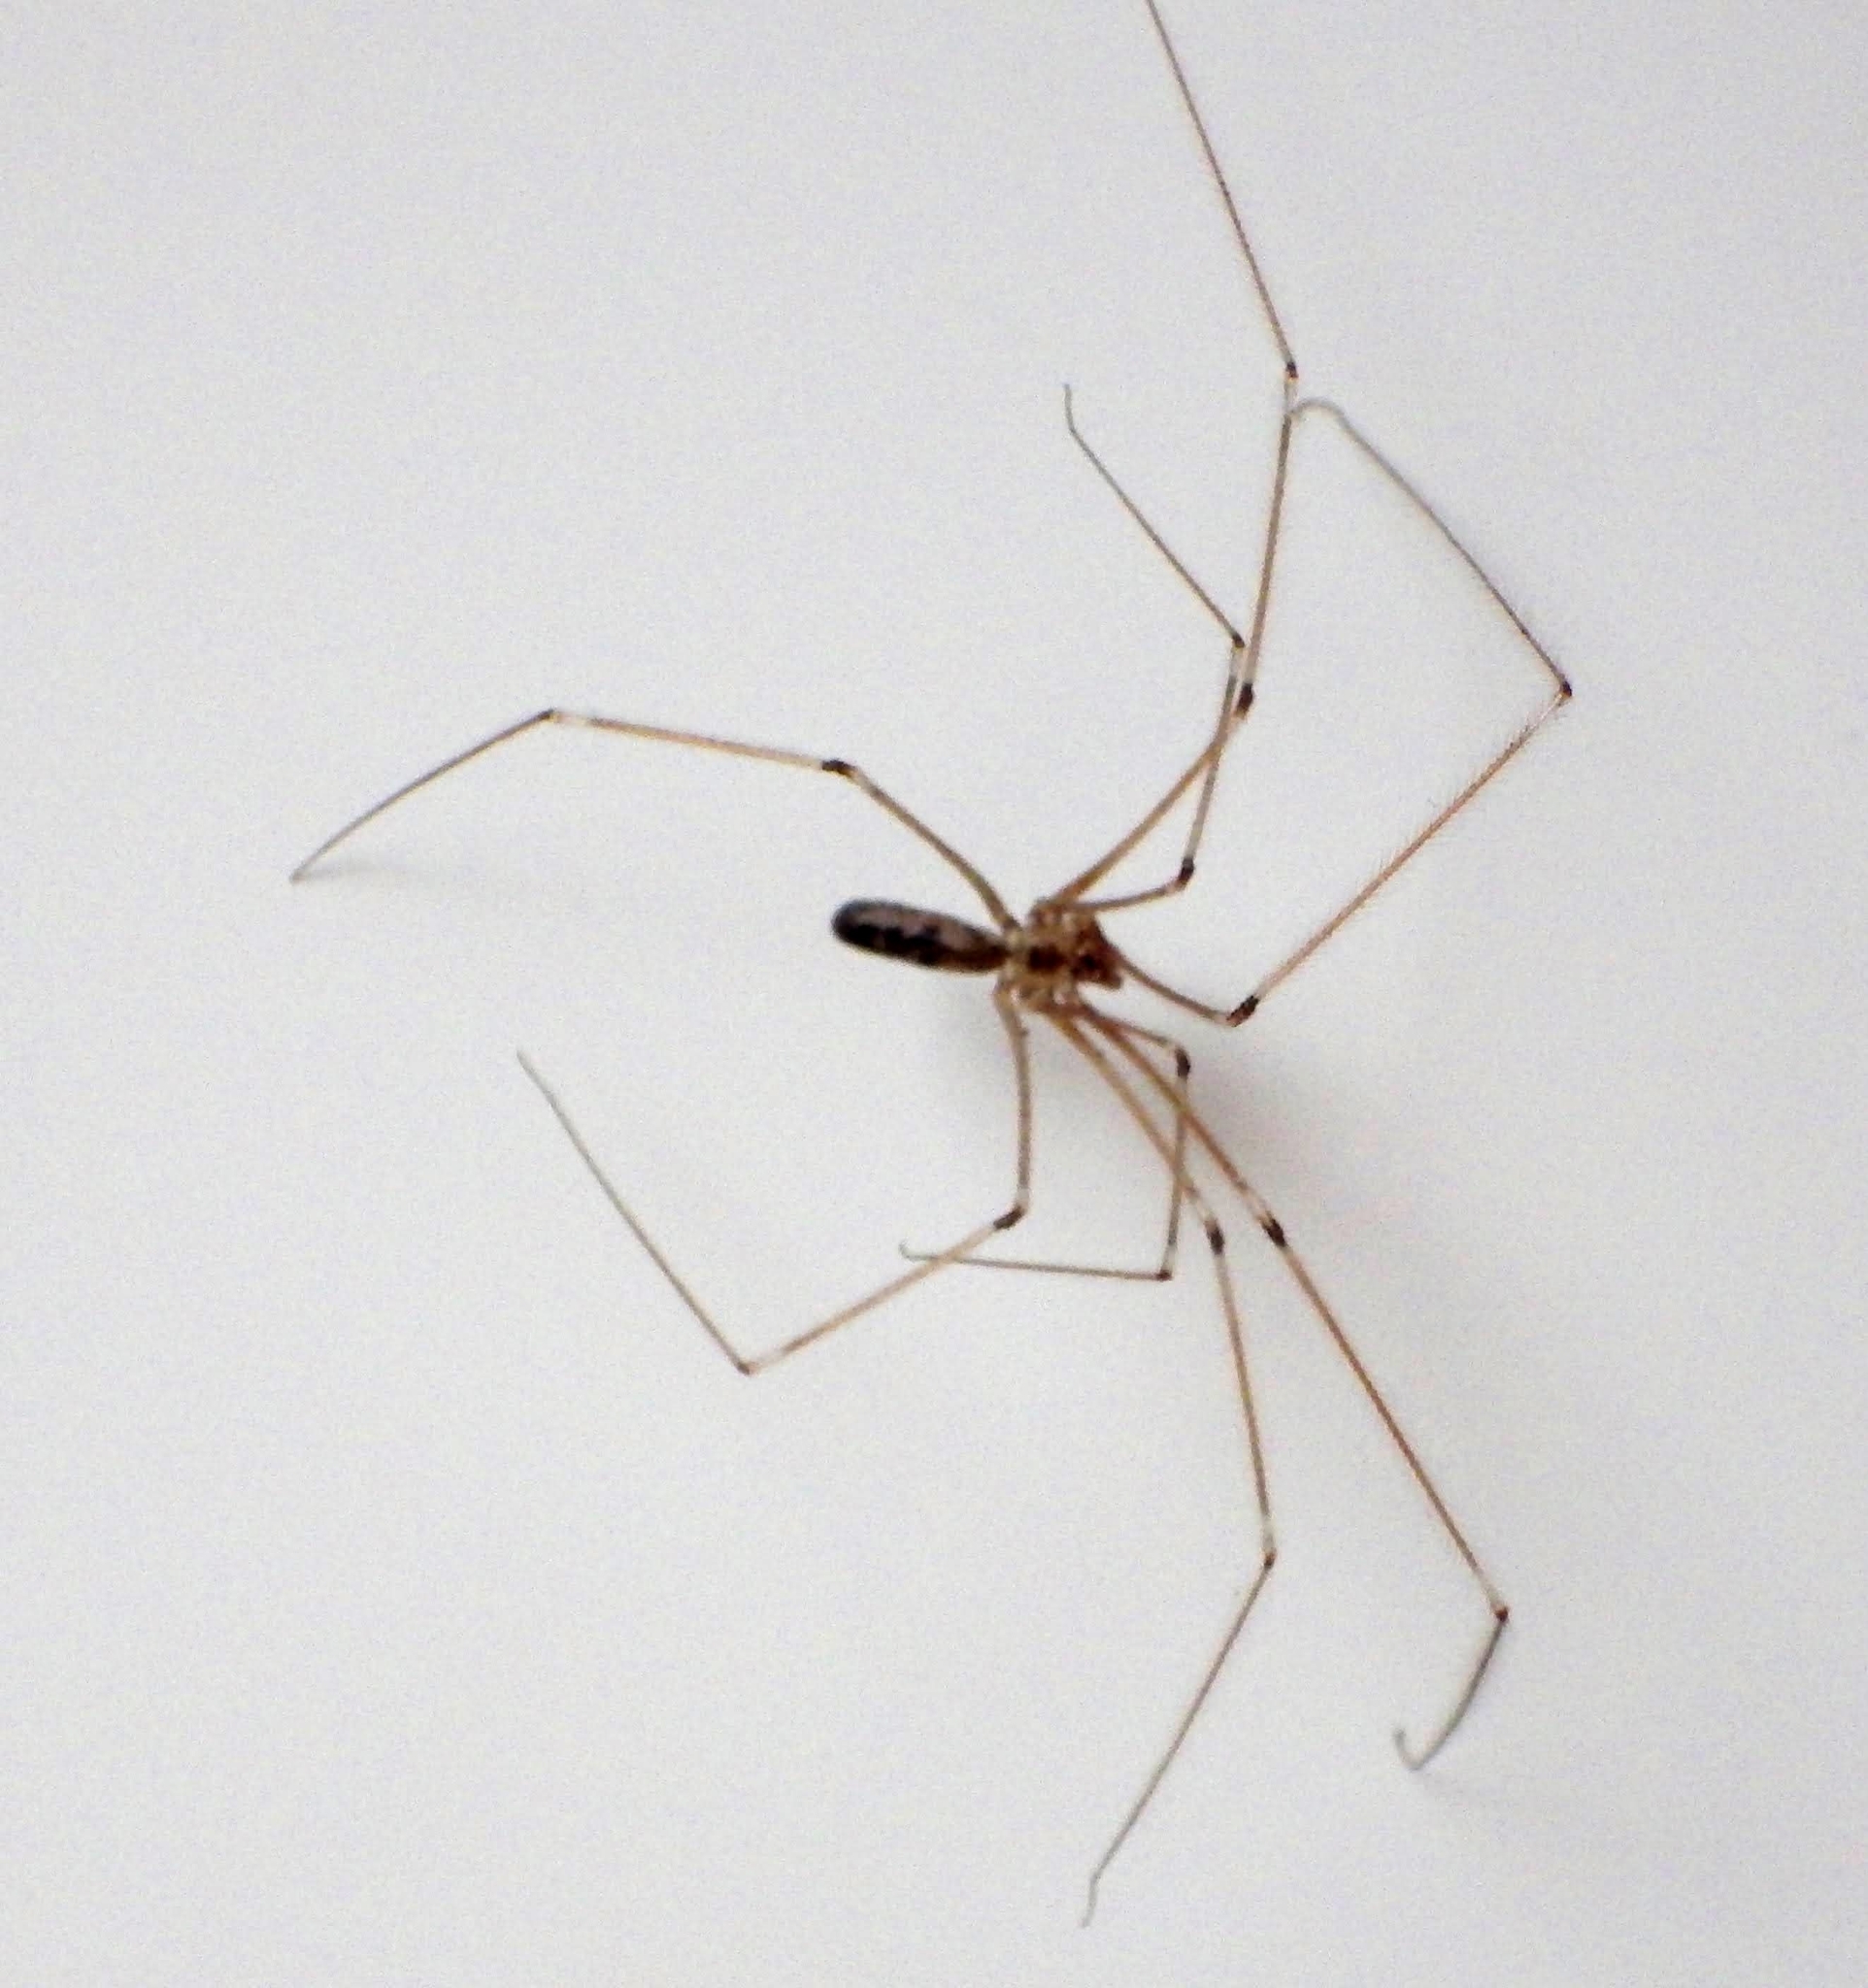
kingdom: Animalia
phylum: Arthropoda
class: Arachnida
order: Araneae
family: Pholcidae
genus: Pholcus
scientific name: Pholcus phalangioides
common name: Longbodied cellar spider
